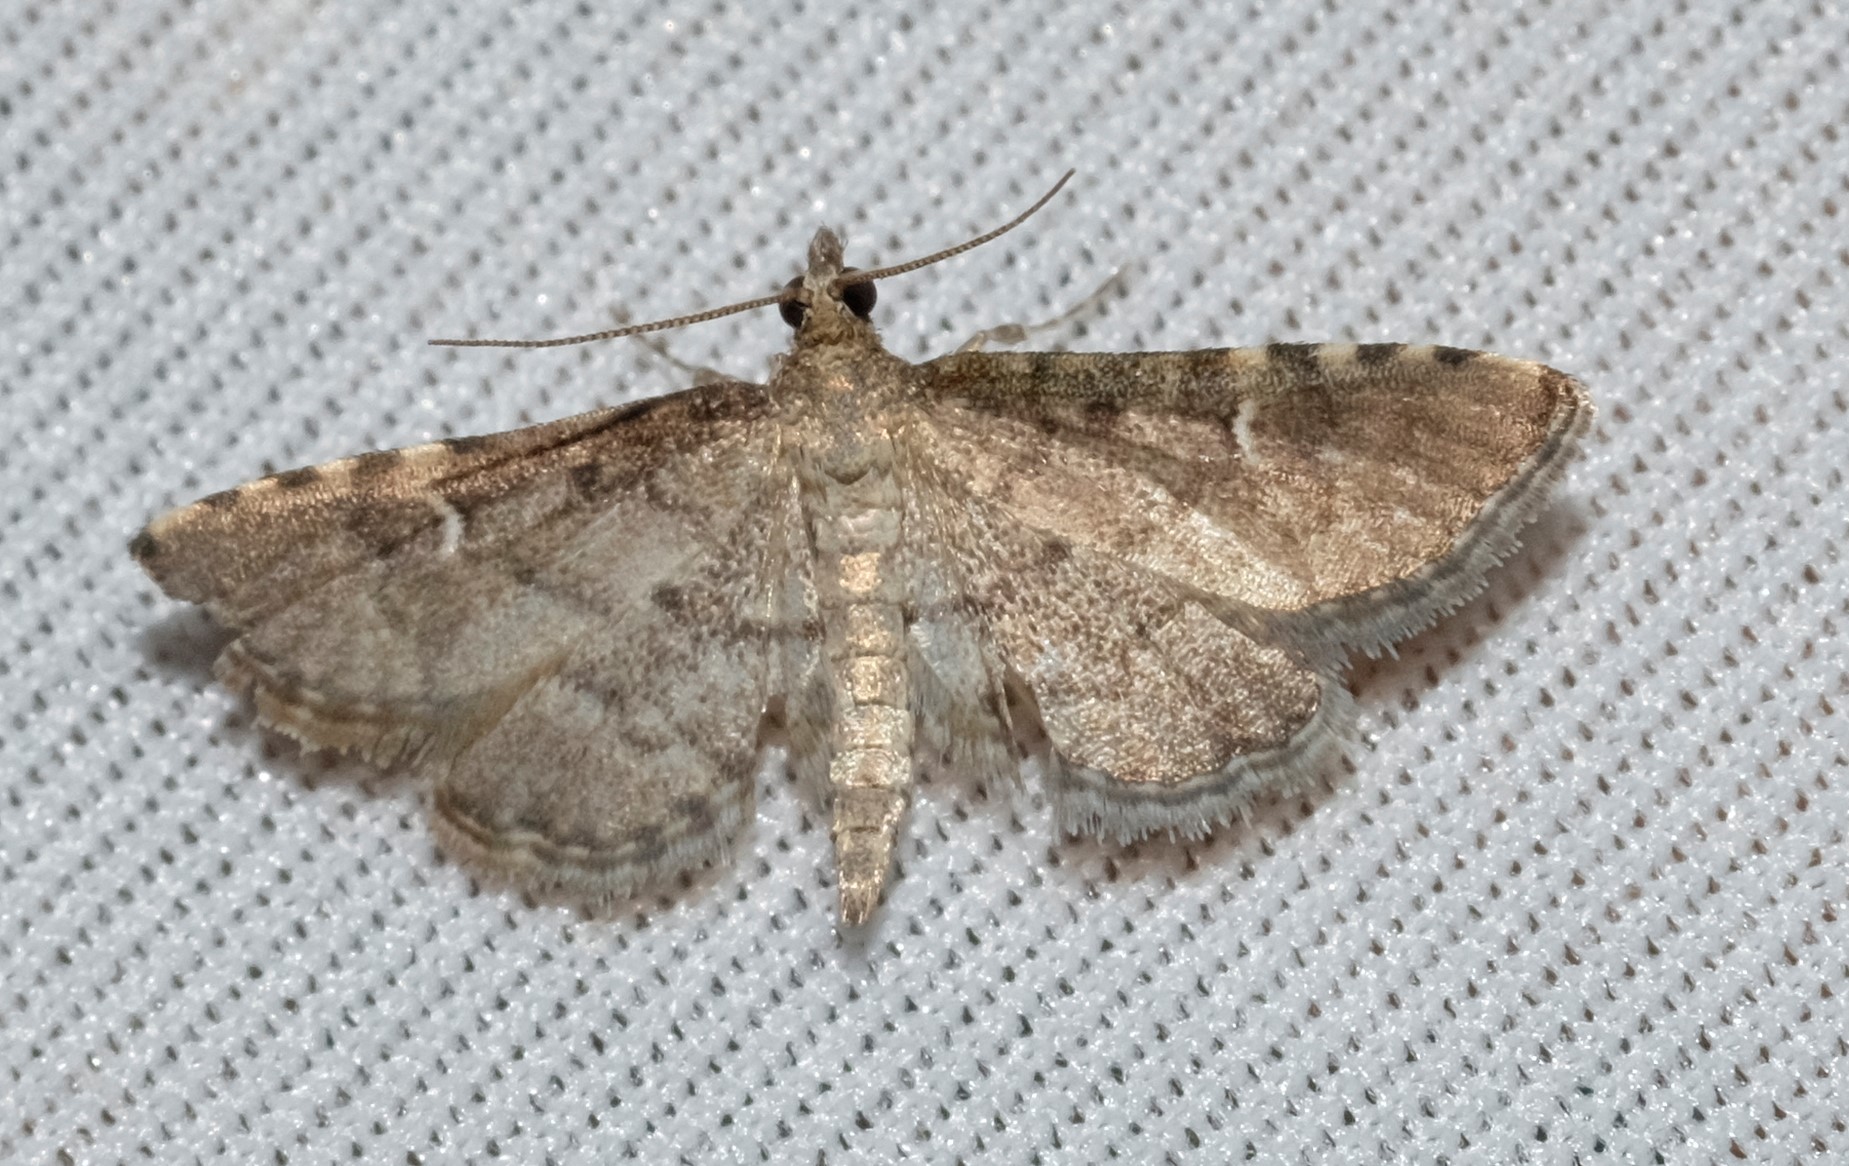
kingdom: Animalia
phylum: Arthropoda
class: Insecta
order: Lepidoptera
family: Crambidae
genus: Metasia
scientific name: Metasia capnochroa
